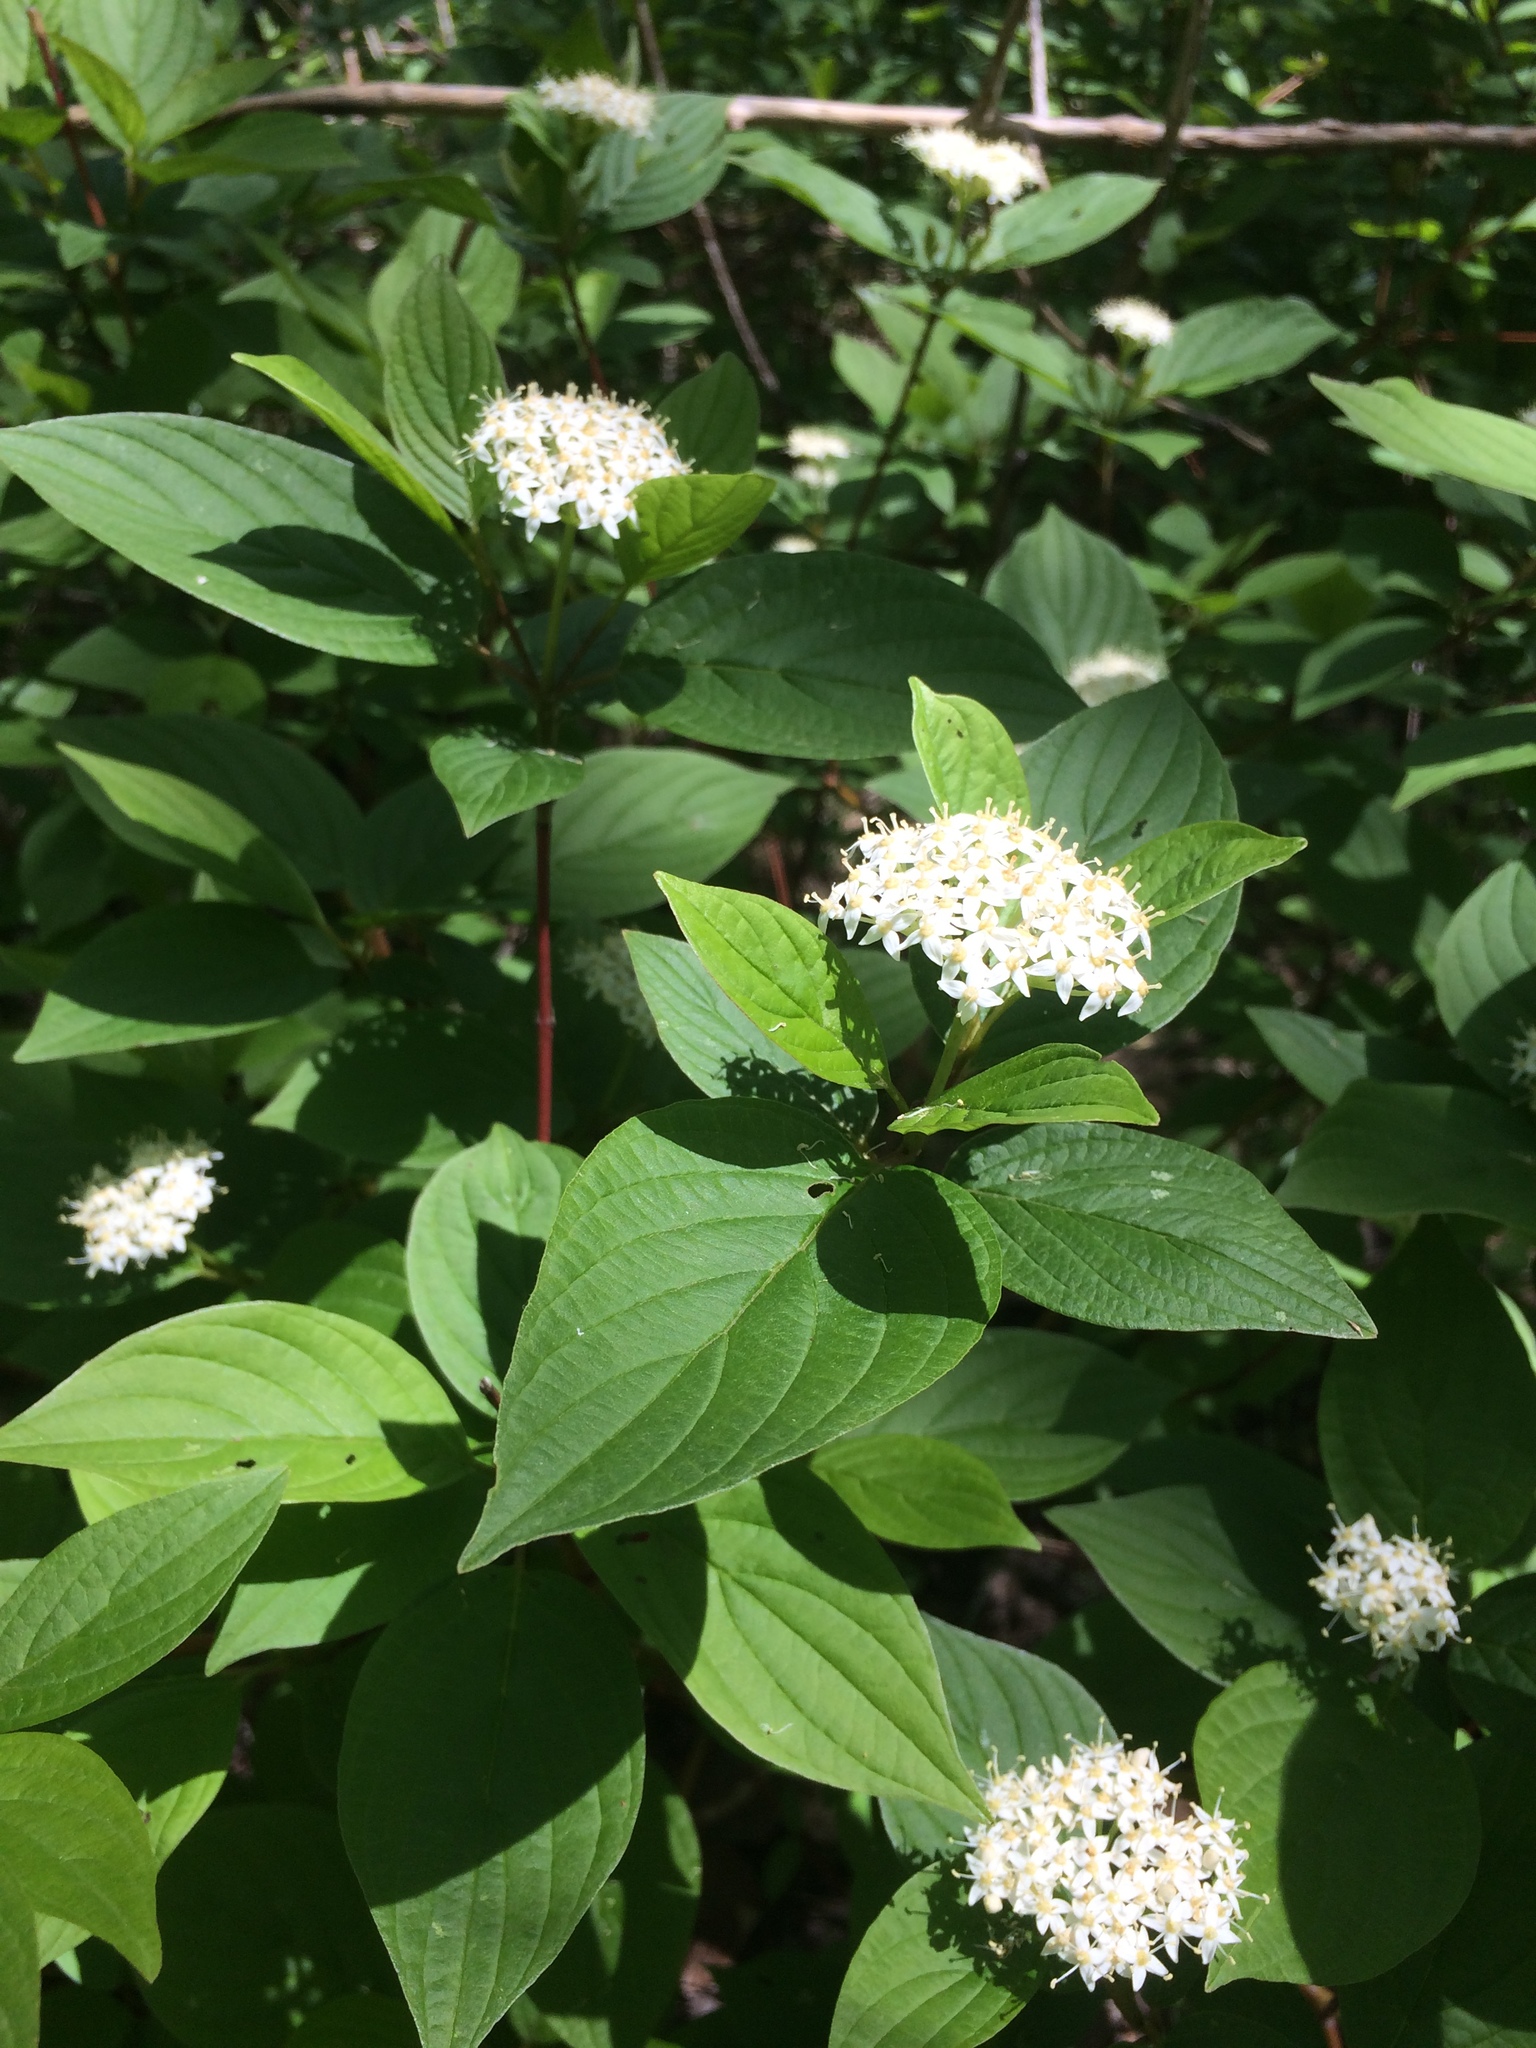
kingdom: Plantae
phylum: Tracheophyta
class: Magnoliopsida
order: Cornales
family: Cornaceae
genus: Cornus
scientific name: Cornus sericea
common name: Red-osier dogwood
